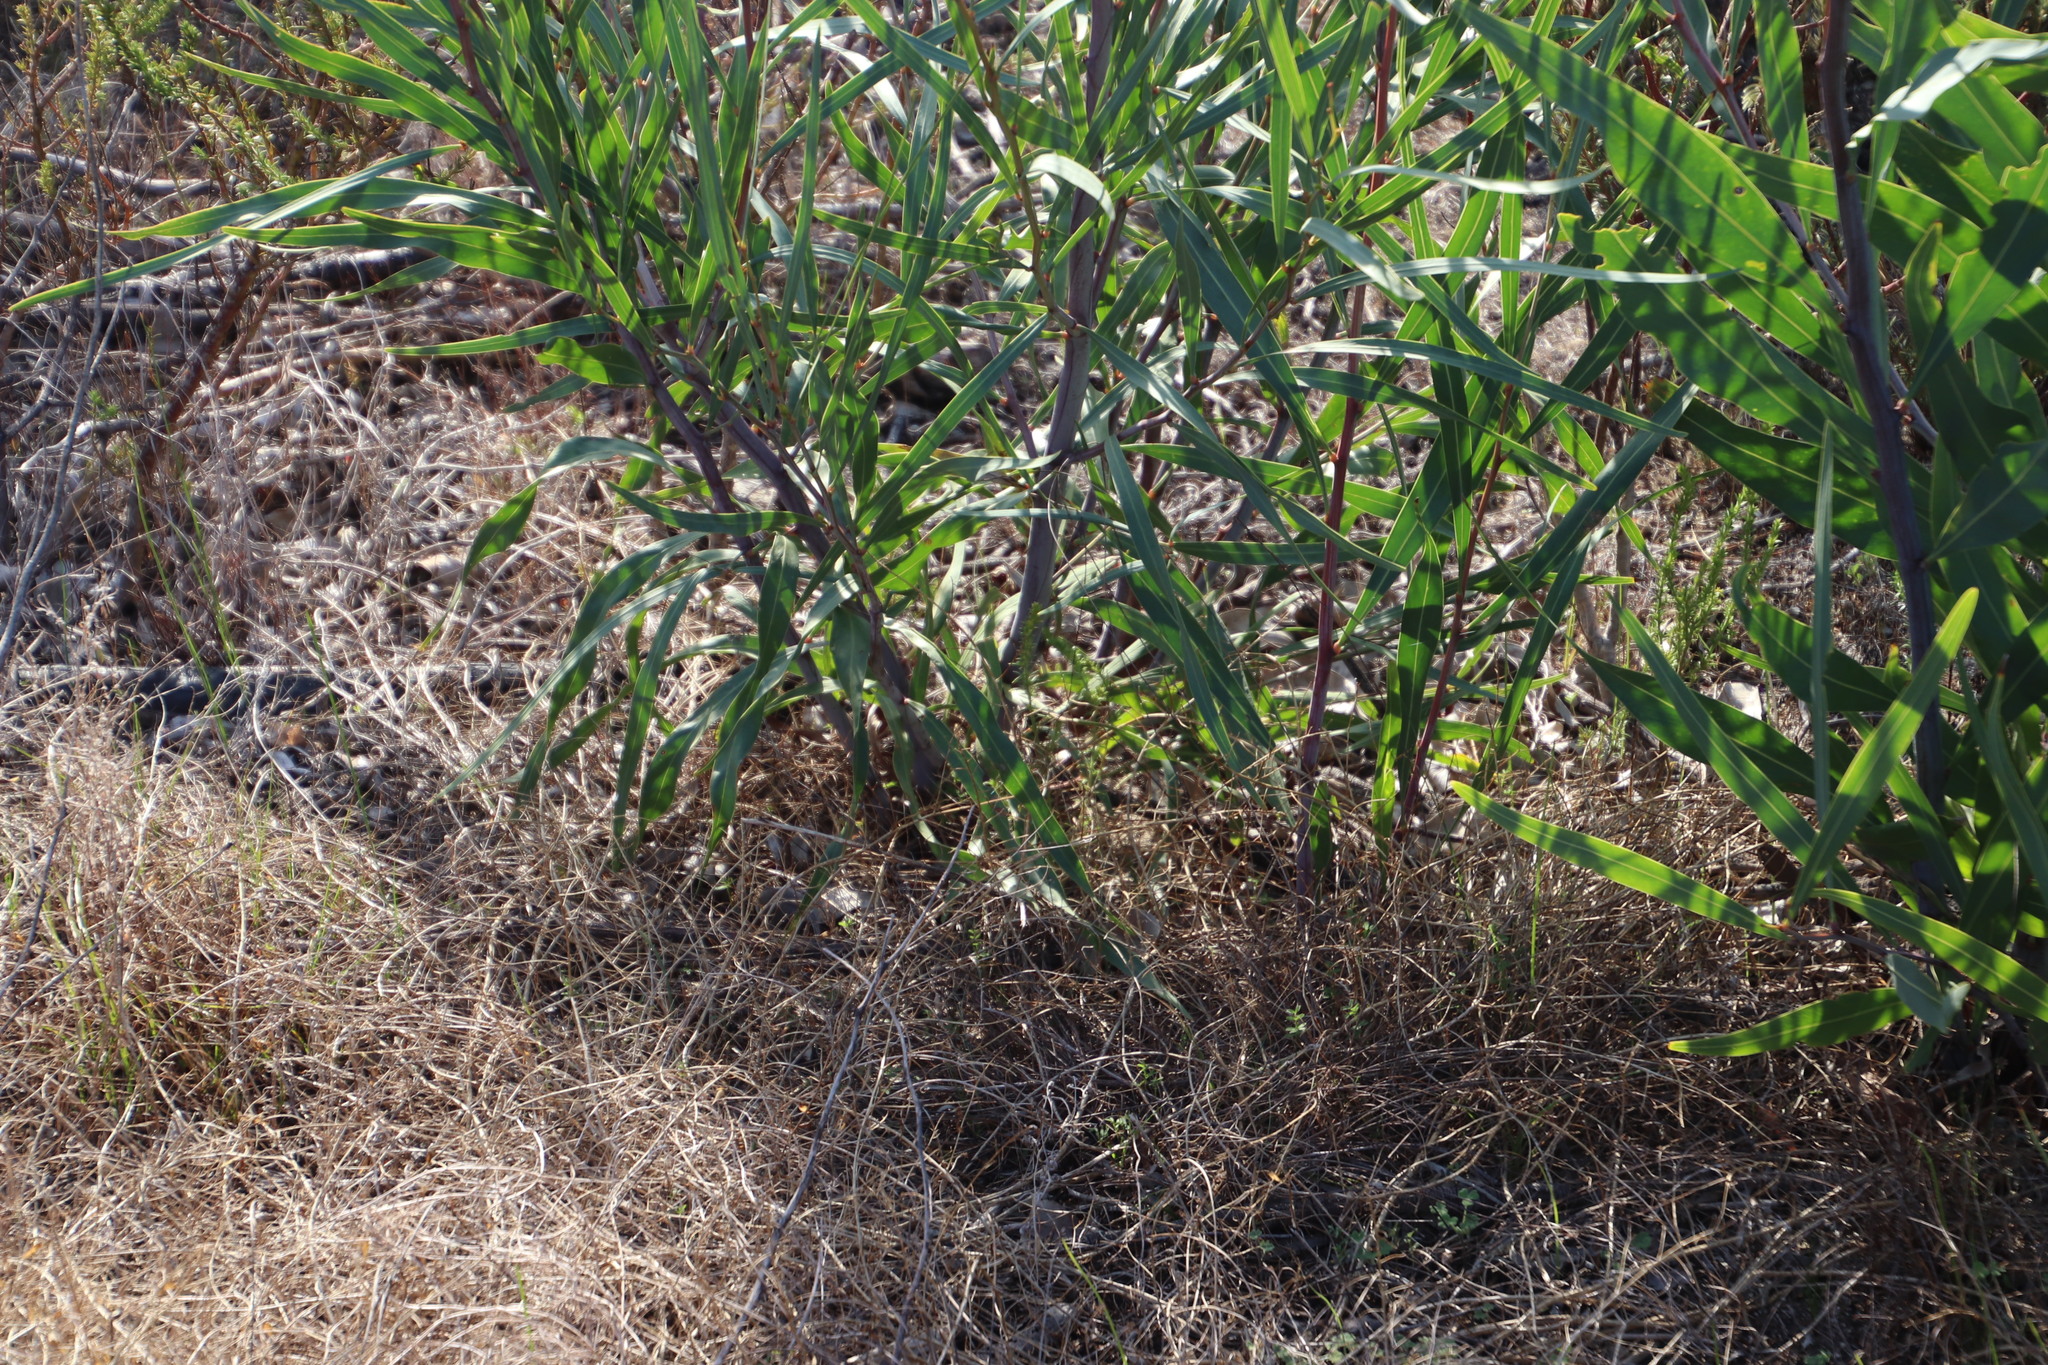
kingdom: Plantae
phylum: Tracheophyta
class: Magnoliopsida
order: Fabales
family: Fabaceae
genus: Acacia
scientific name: Acacia saligna
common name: Orange wattle
